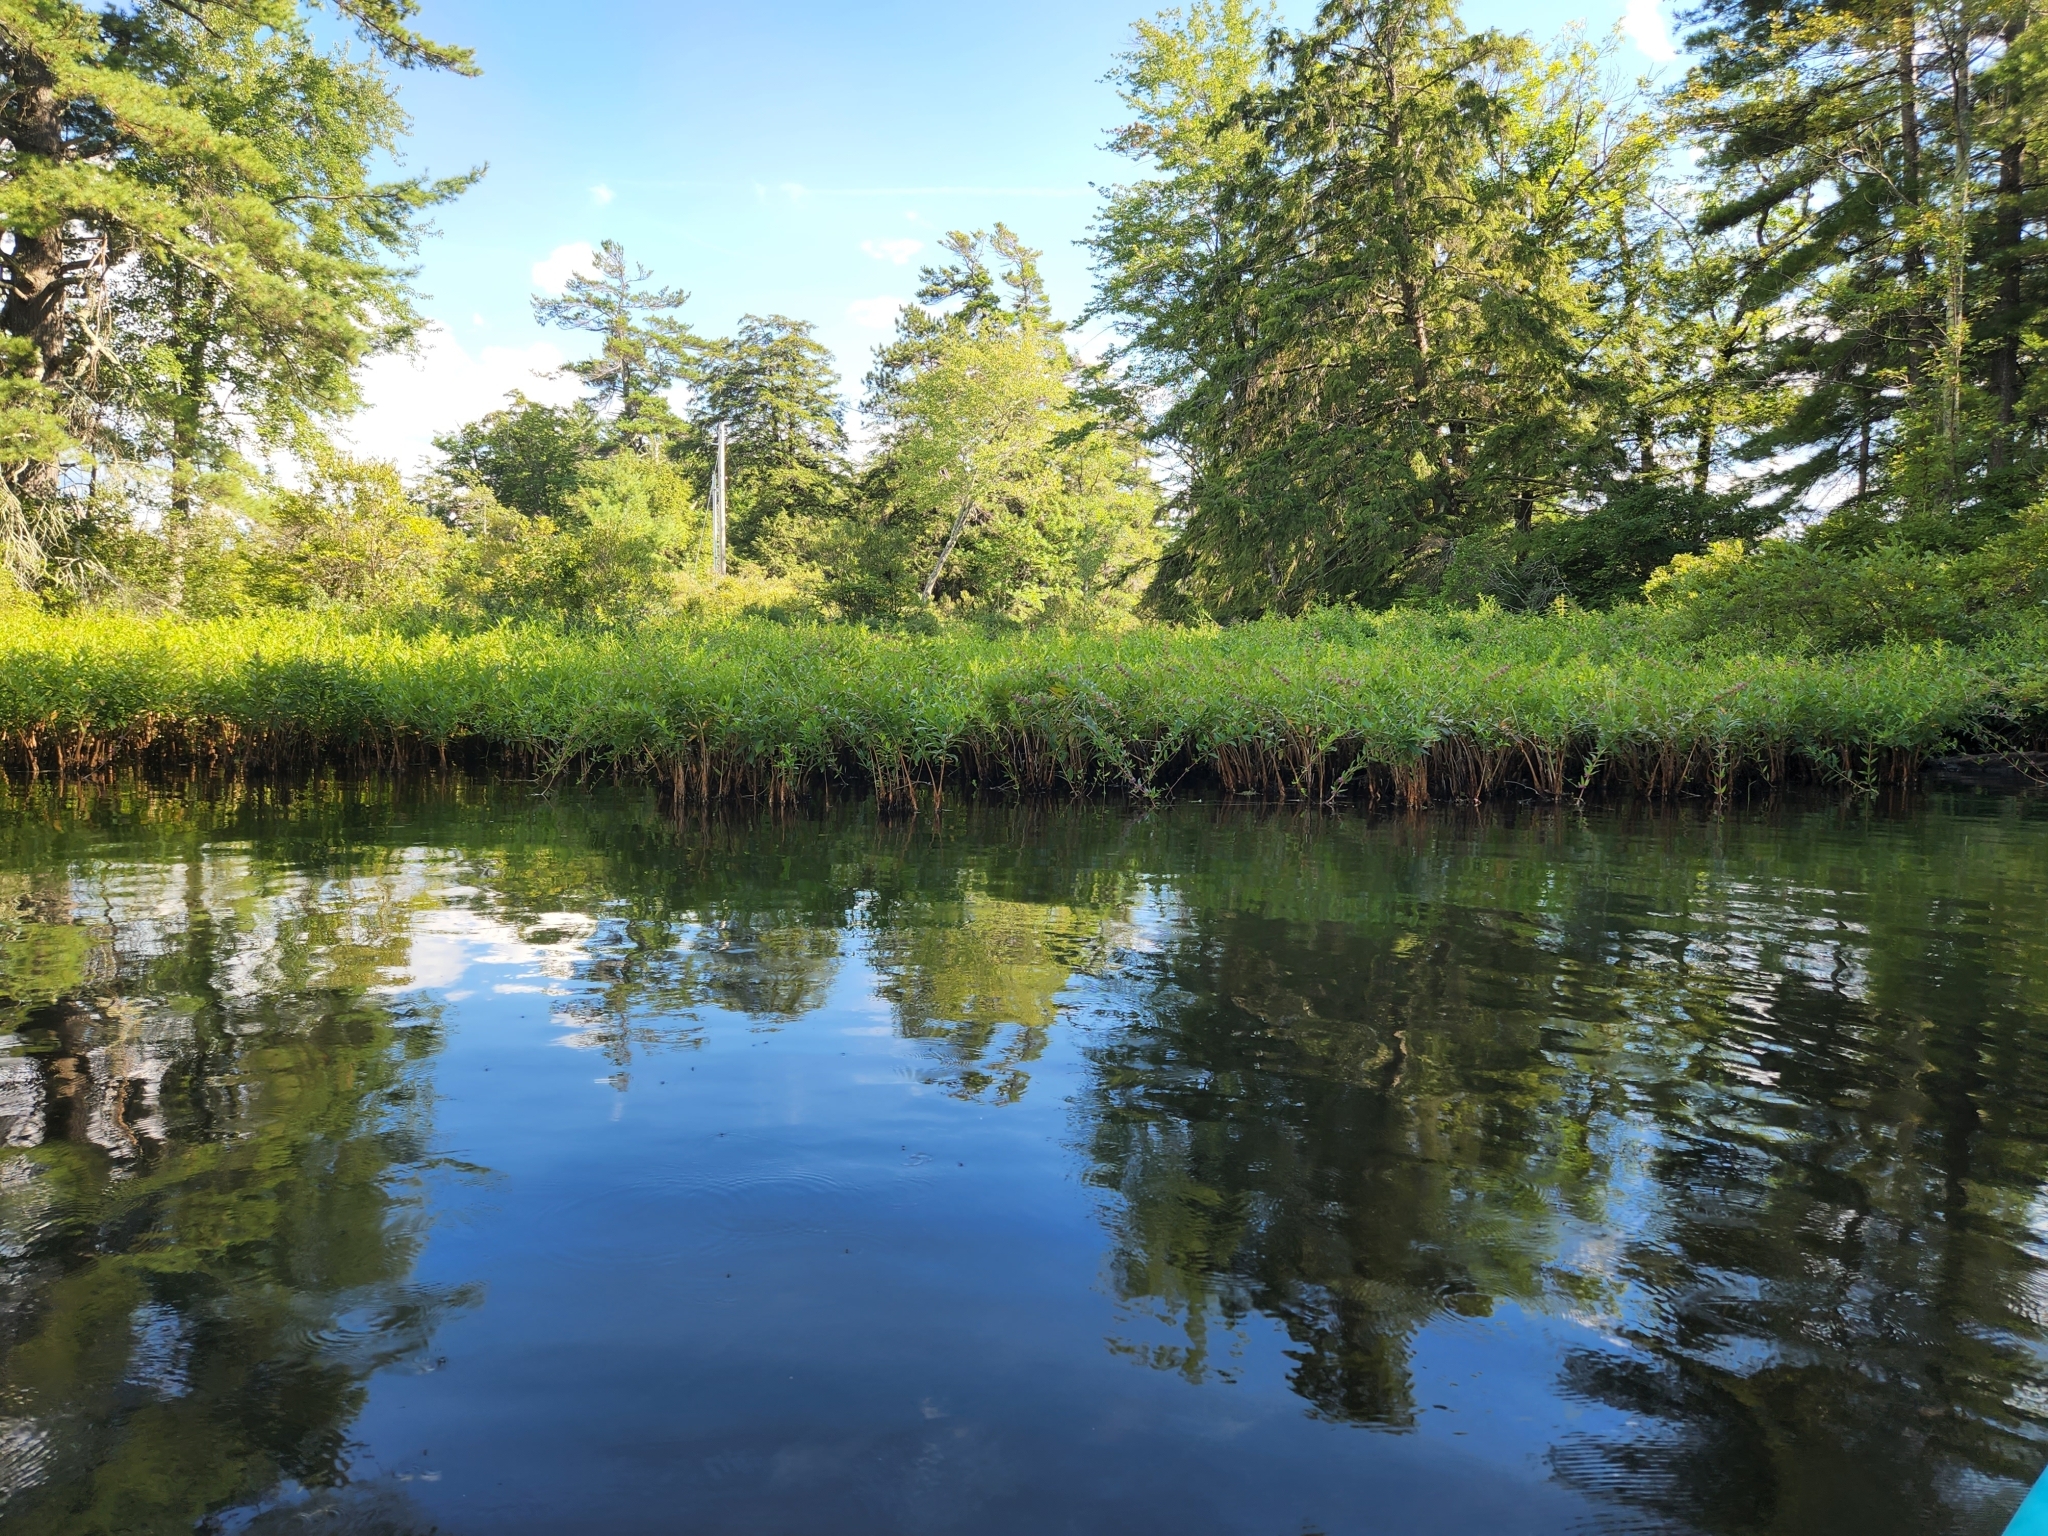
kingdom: Plantae
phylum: Tracheophyta
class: Magnoliopsida
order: Myrtales
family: Lythraceae
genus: Decodon
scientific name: Decodon verticillatus
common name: Hairy swamp loosestrife
